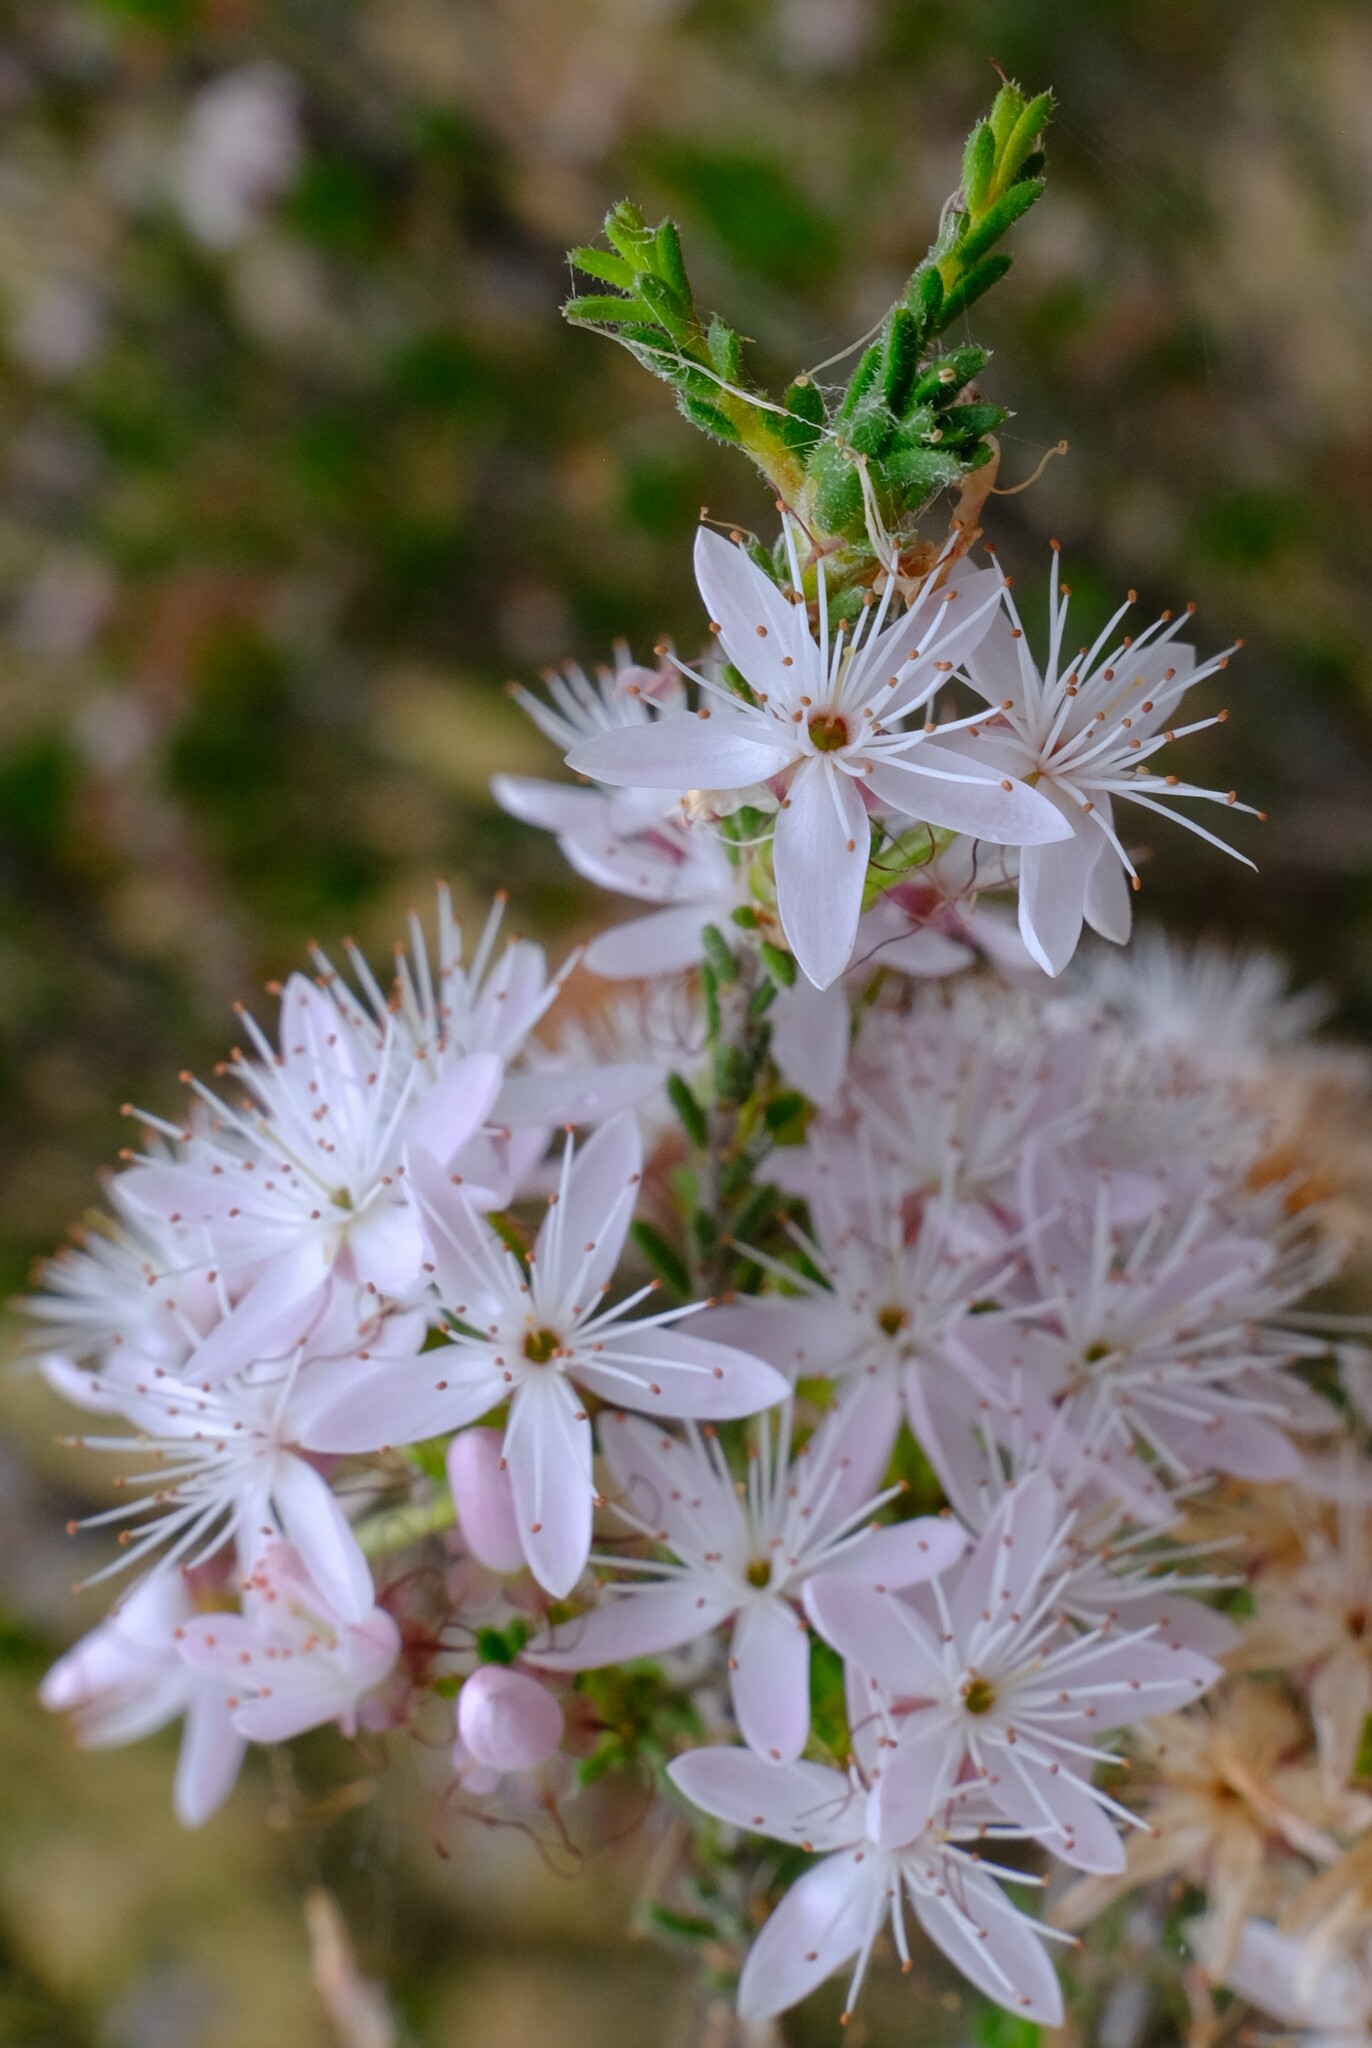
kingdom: Plantae
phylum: Tracheophyta
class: Magnoliopsida
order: Myrtales
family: Myrtaceae
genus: Calytrix
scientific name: Calytrix tetragona
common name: Common fringe myrtle
